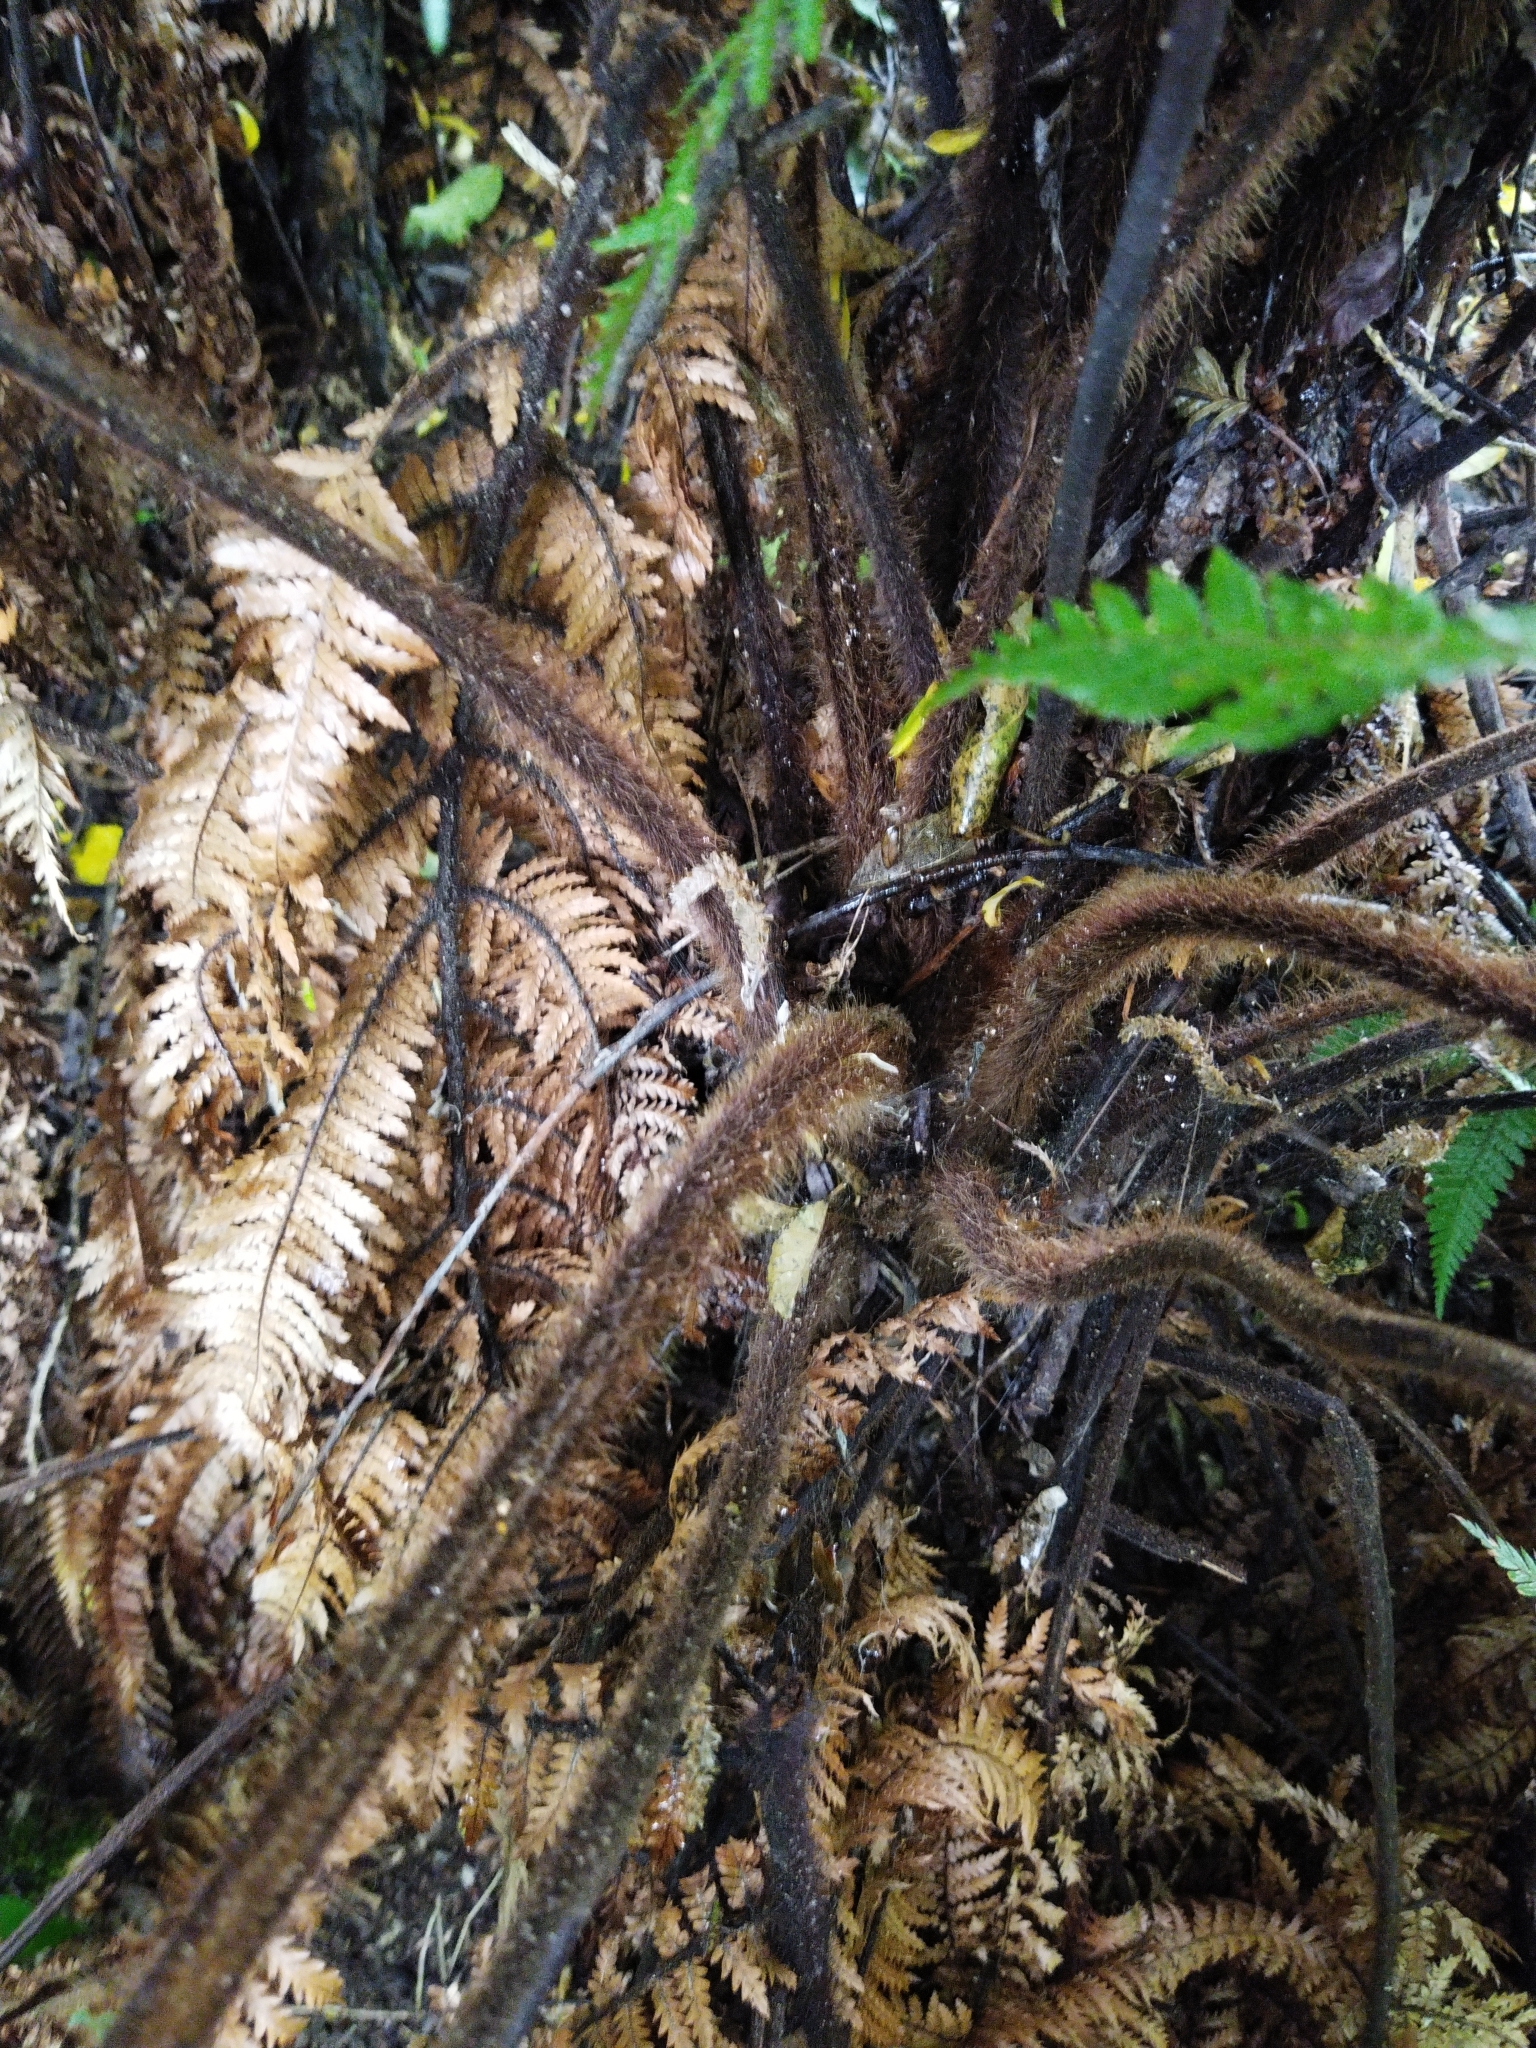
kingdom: Plantae
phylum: Tracheophyta
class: Polypodiopsida
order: Cyatheales
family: Dicksoniaceae
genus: Dicksonia
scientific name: Dicksonia squarrosa
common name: Hard treefern
